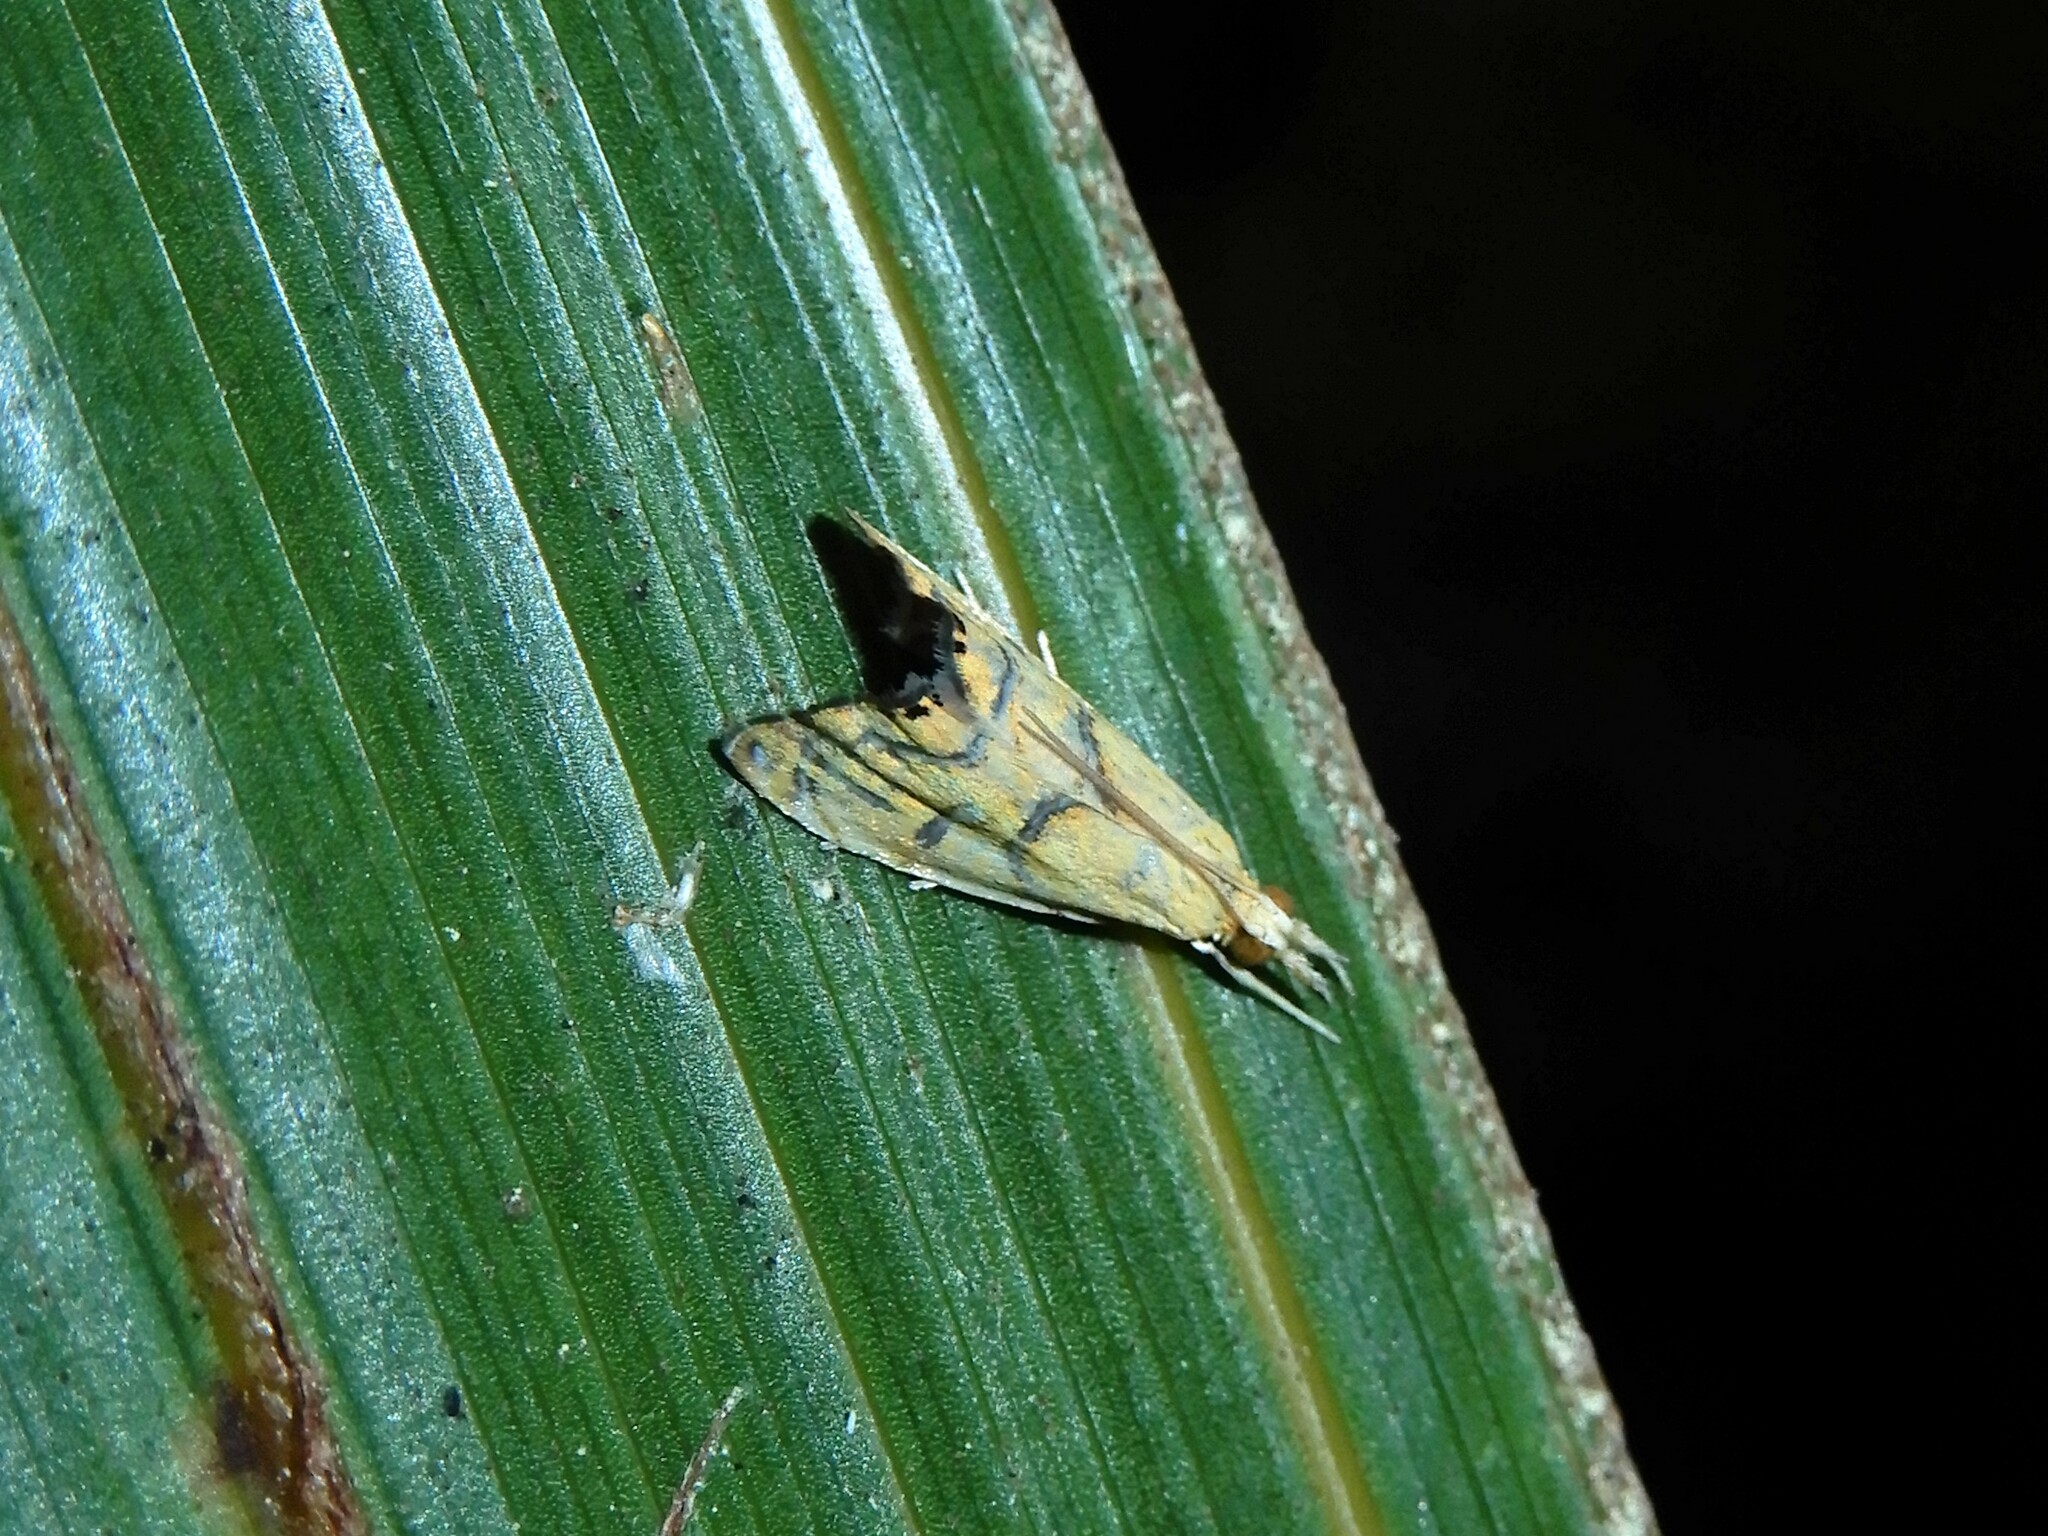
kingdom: Animalia
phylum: Arthropoda
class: Insecta
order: Lepidoptera
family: Crambidae
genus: Glaucocharis
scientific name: Glaucocharis auriscriptella
